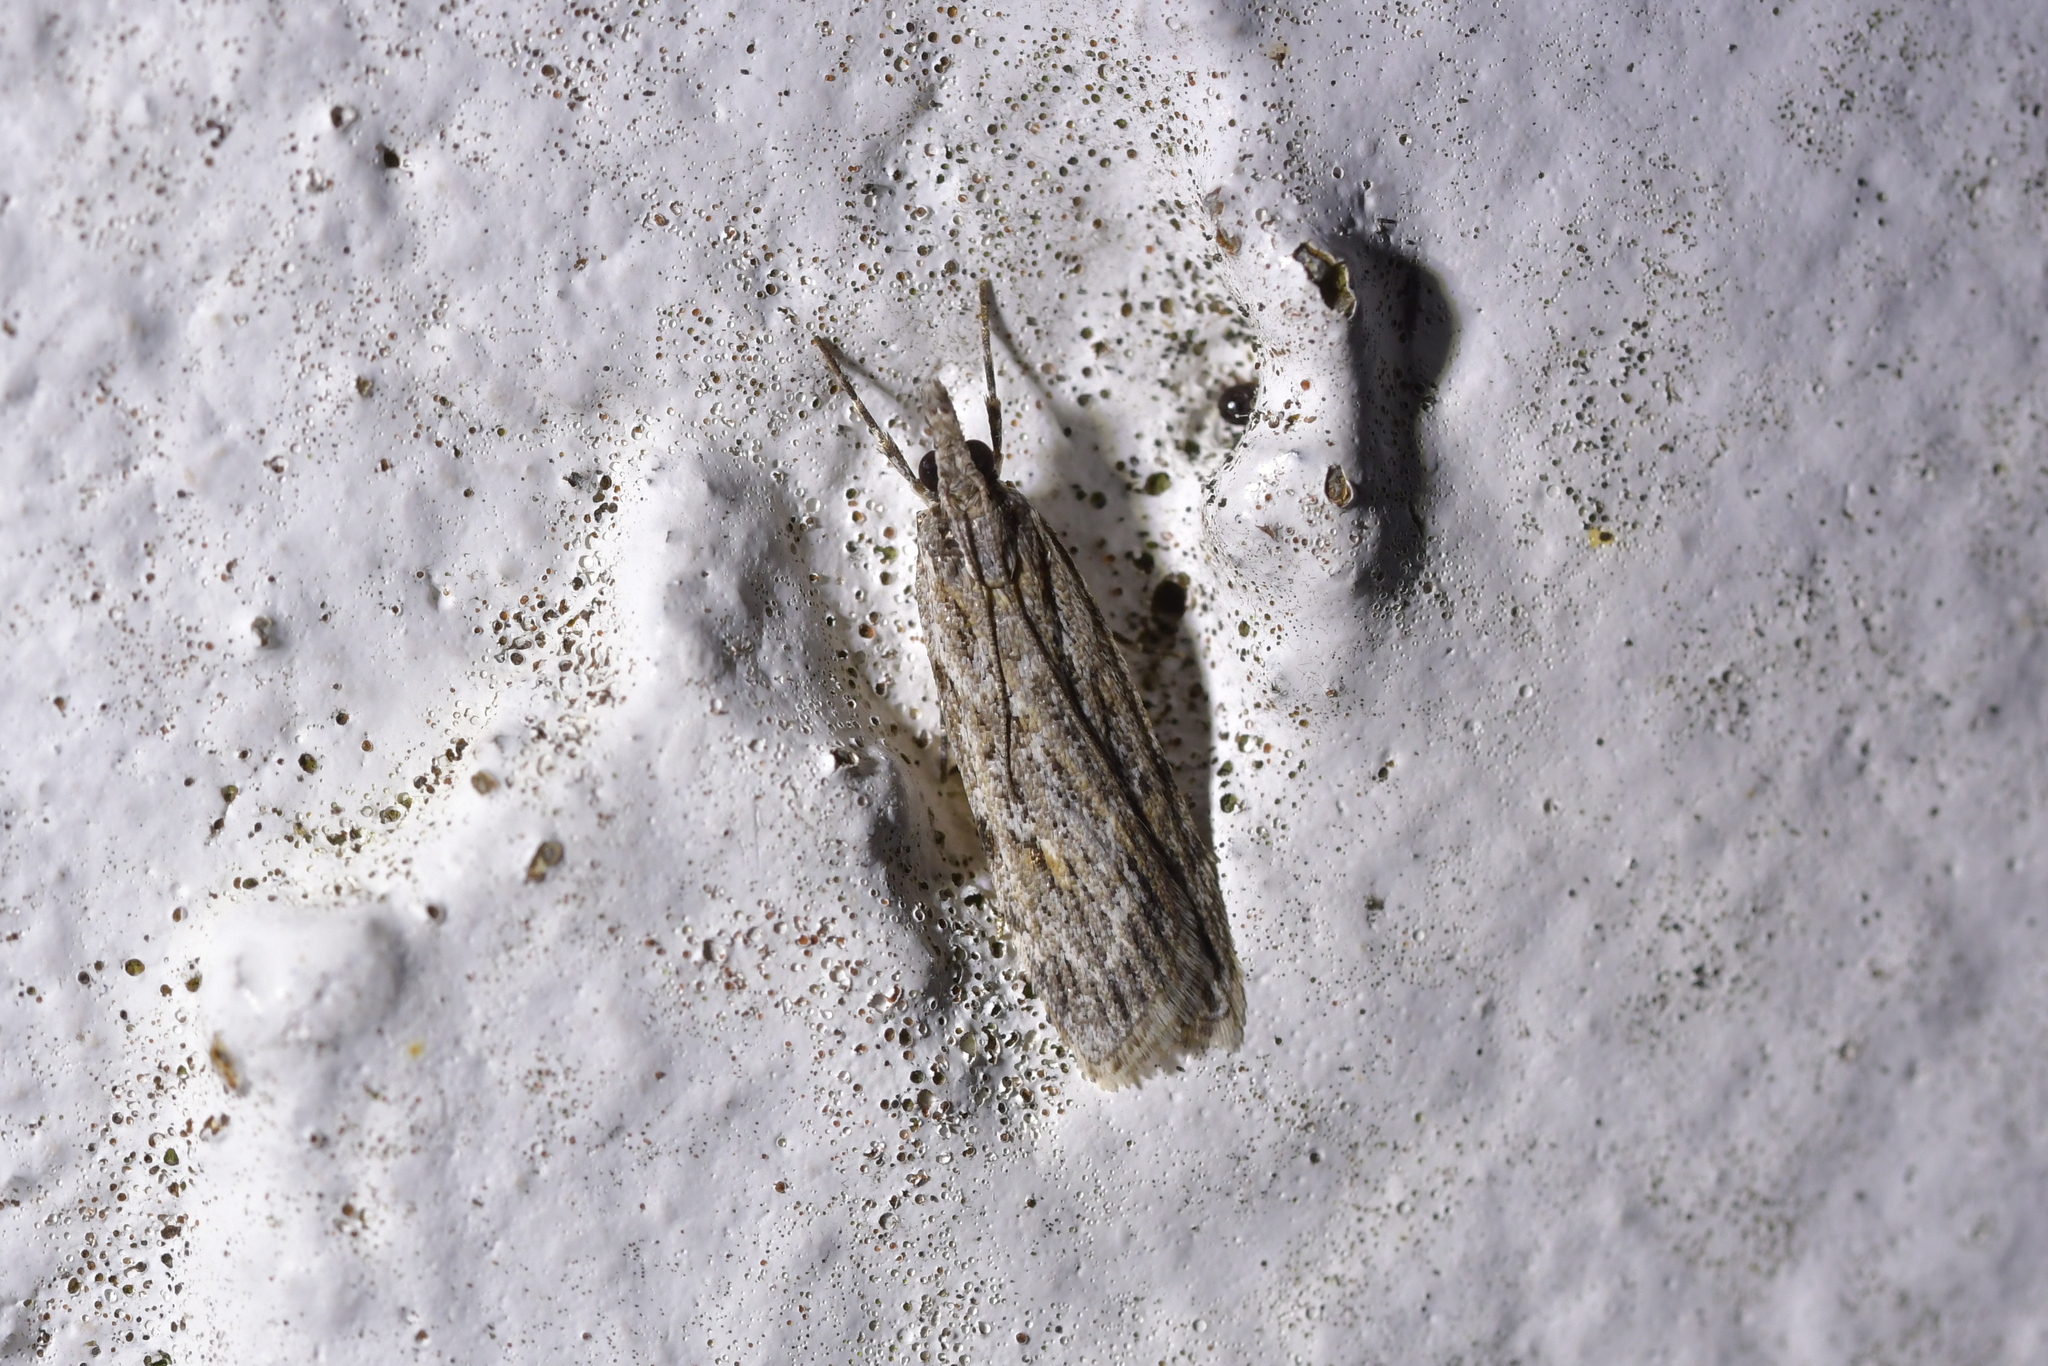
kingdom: Animalia
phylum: Arthropoda
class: Insecta
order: Lepidoptera
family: Crambidae
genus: Scoparia
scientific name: Scoparia chalicodes
